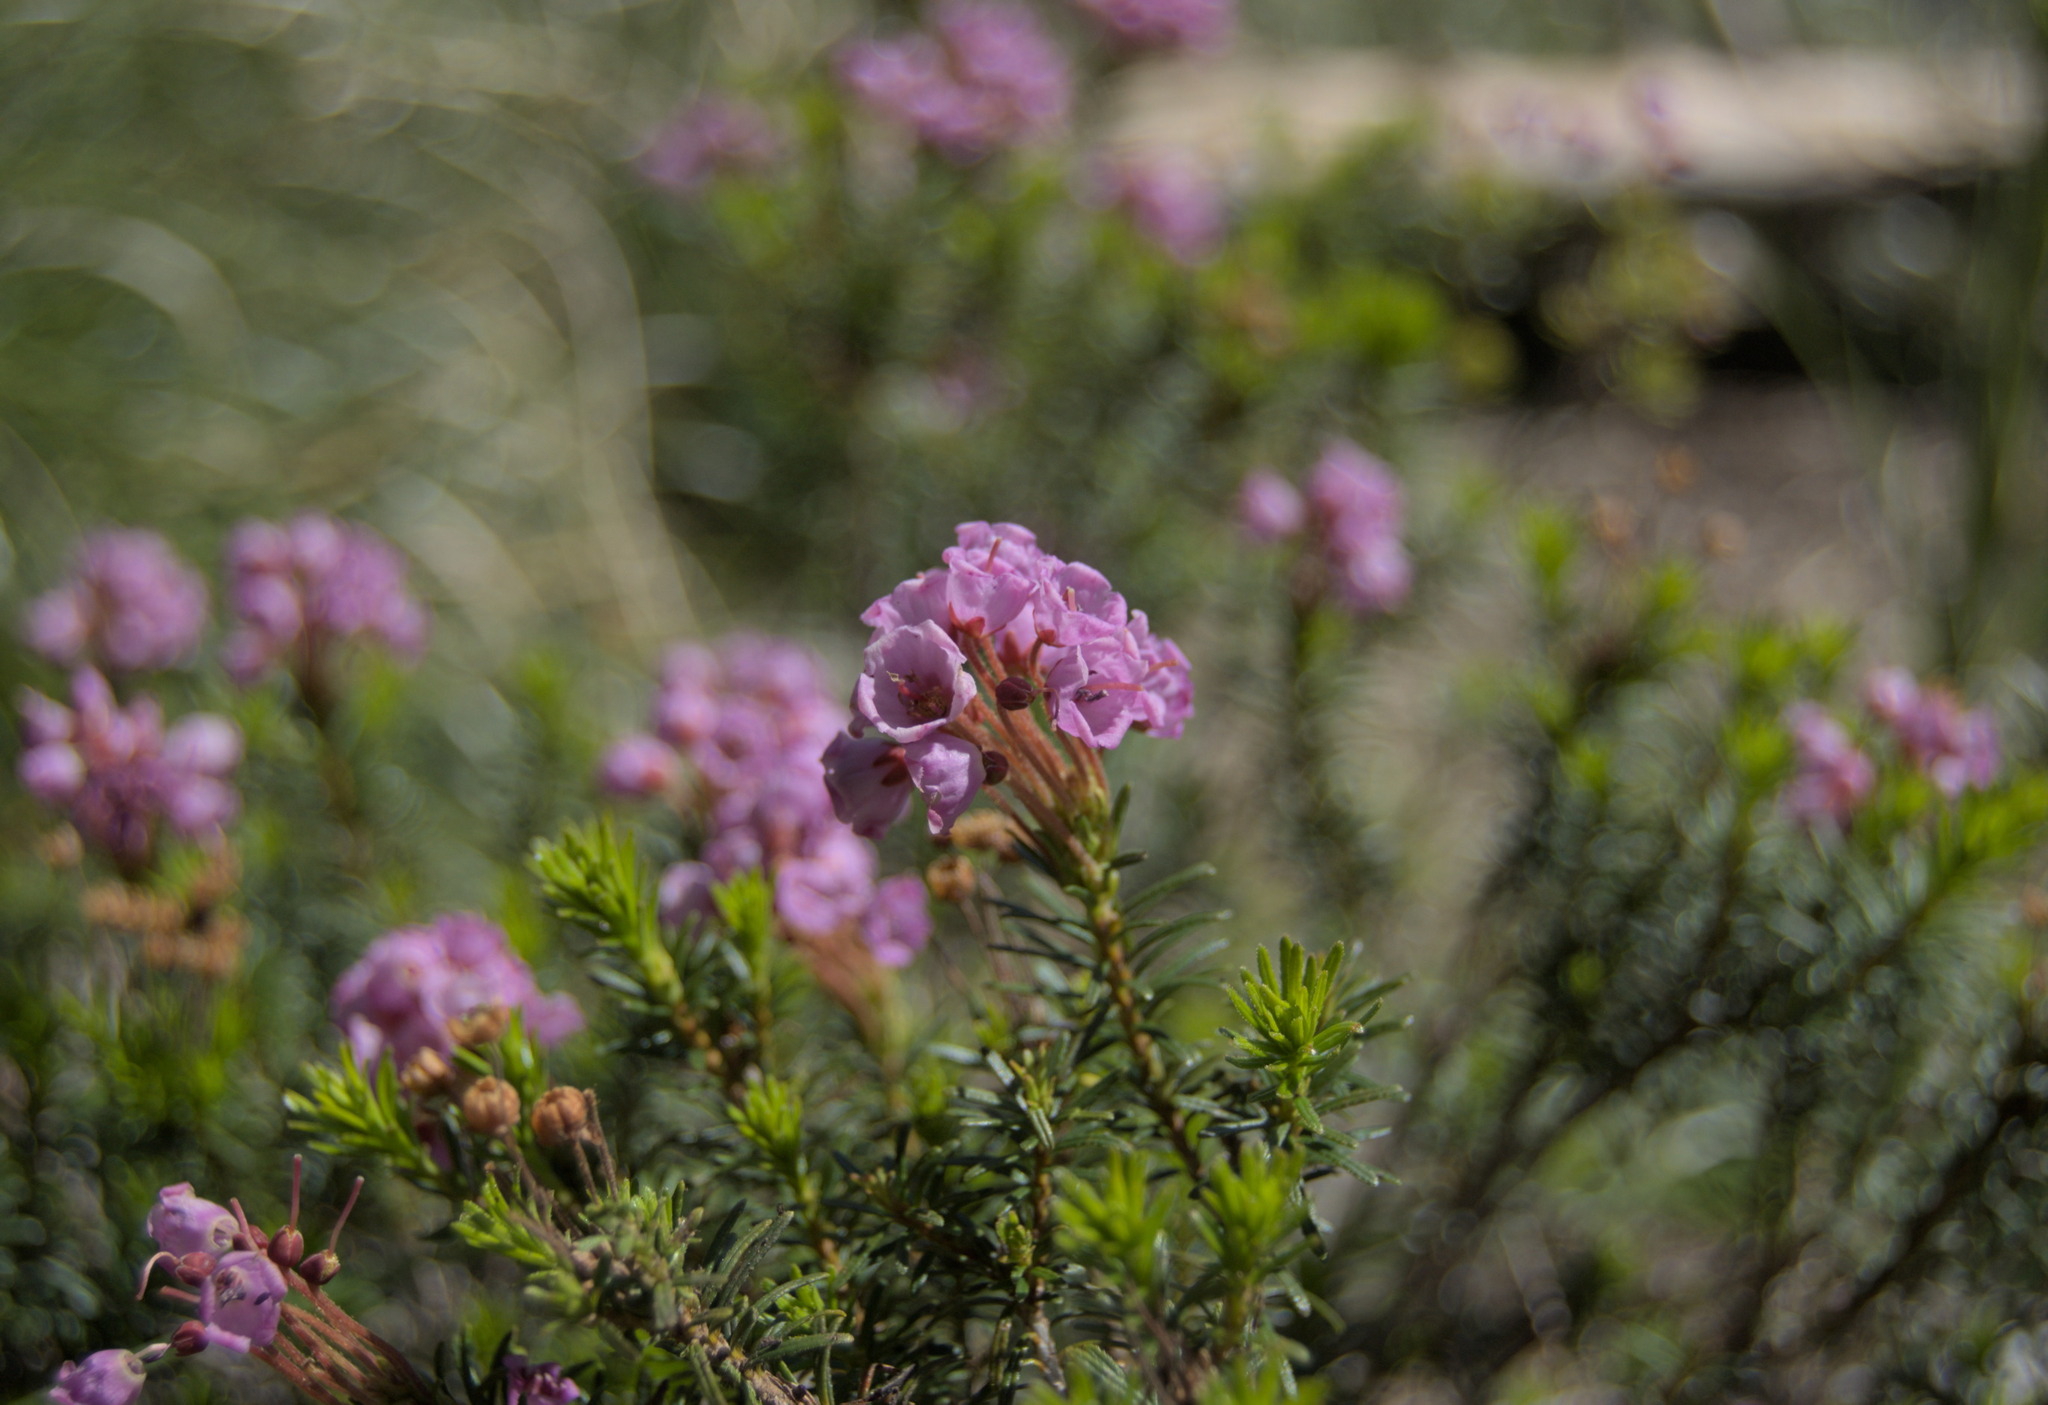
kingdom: Plantae
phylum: Tracheophyta
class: Magnoliopsida
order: Ericales
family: Ericaceae
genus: Phyllodoce
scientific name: Phyllodoce empetriformis
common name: Pink mountain heather
